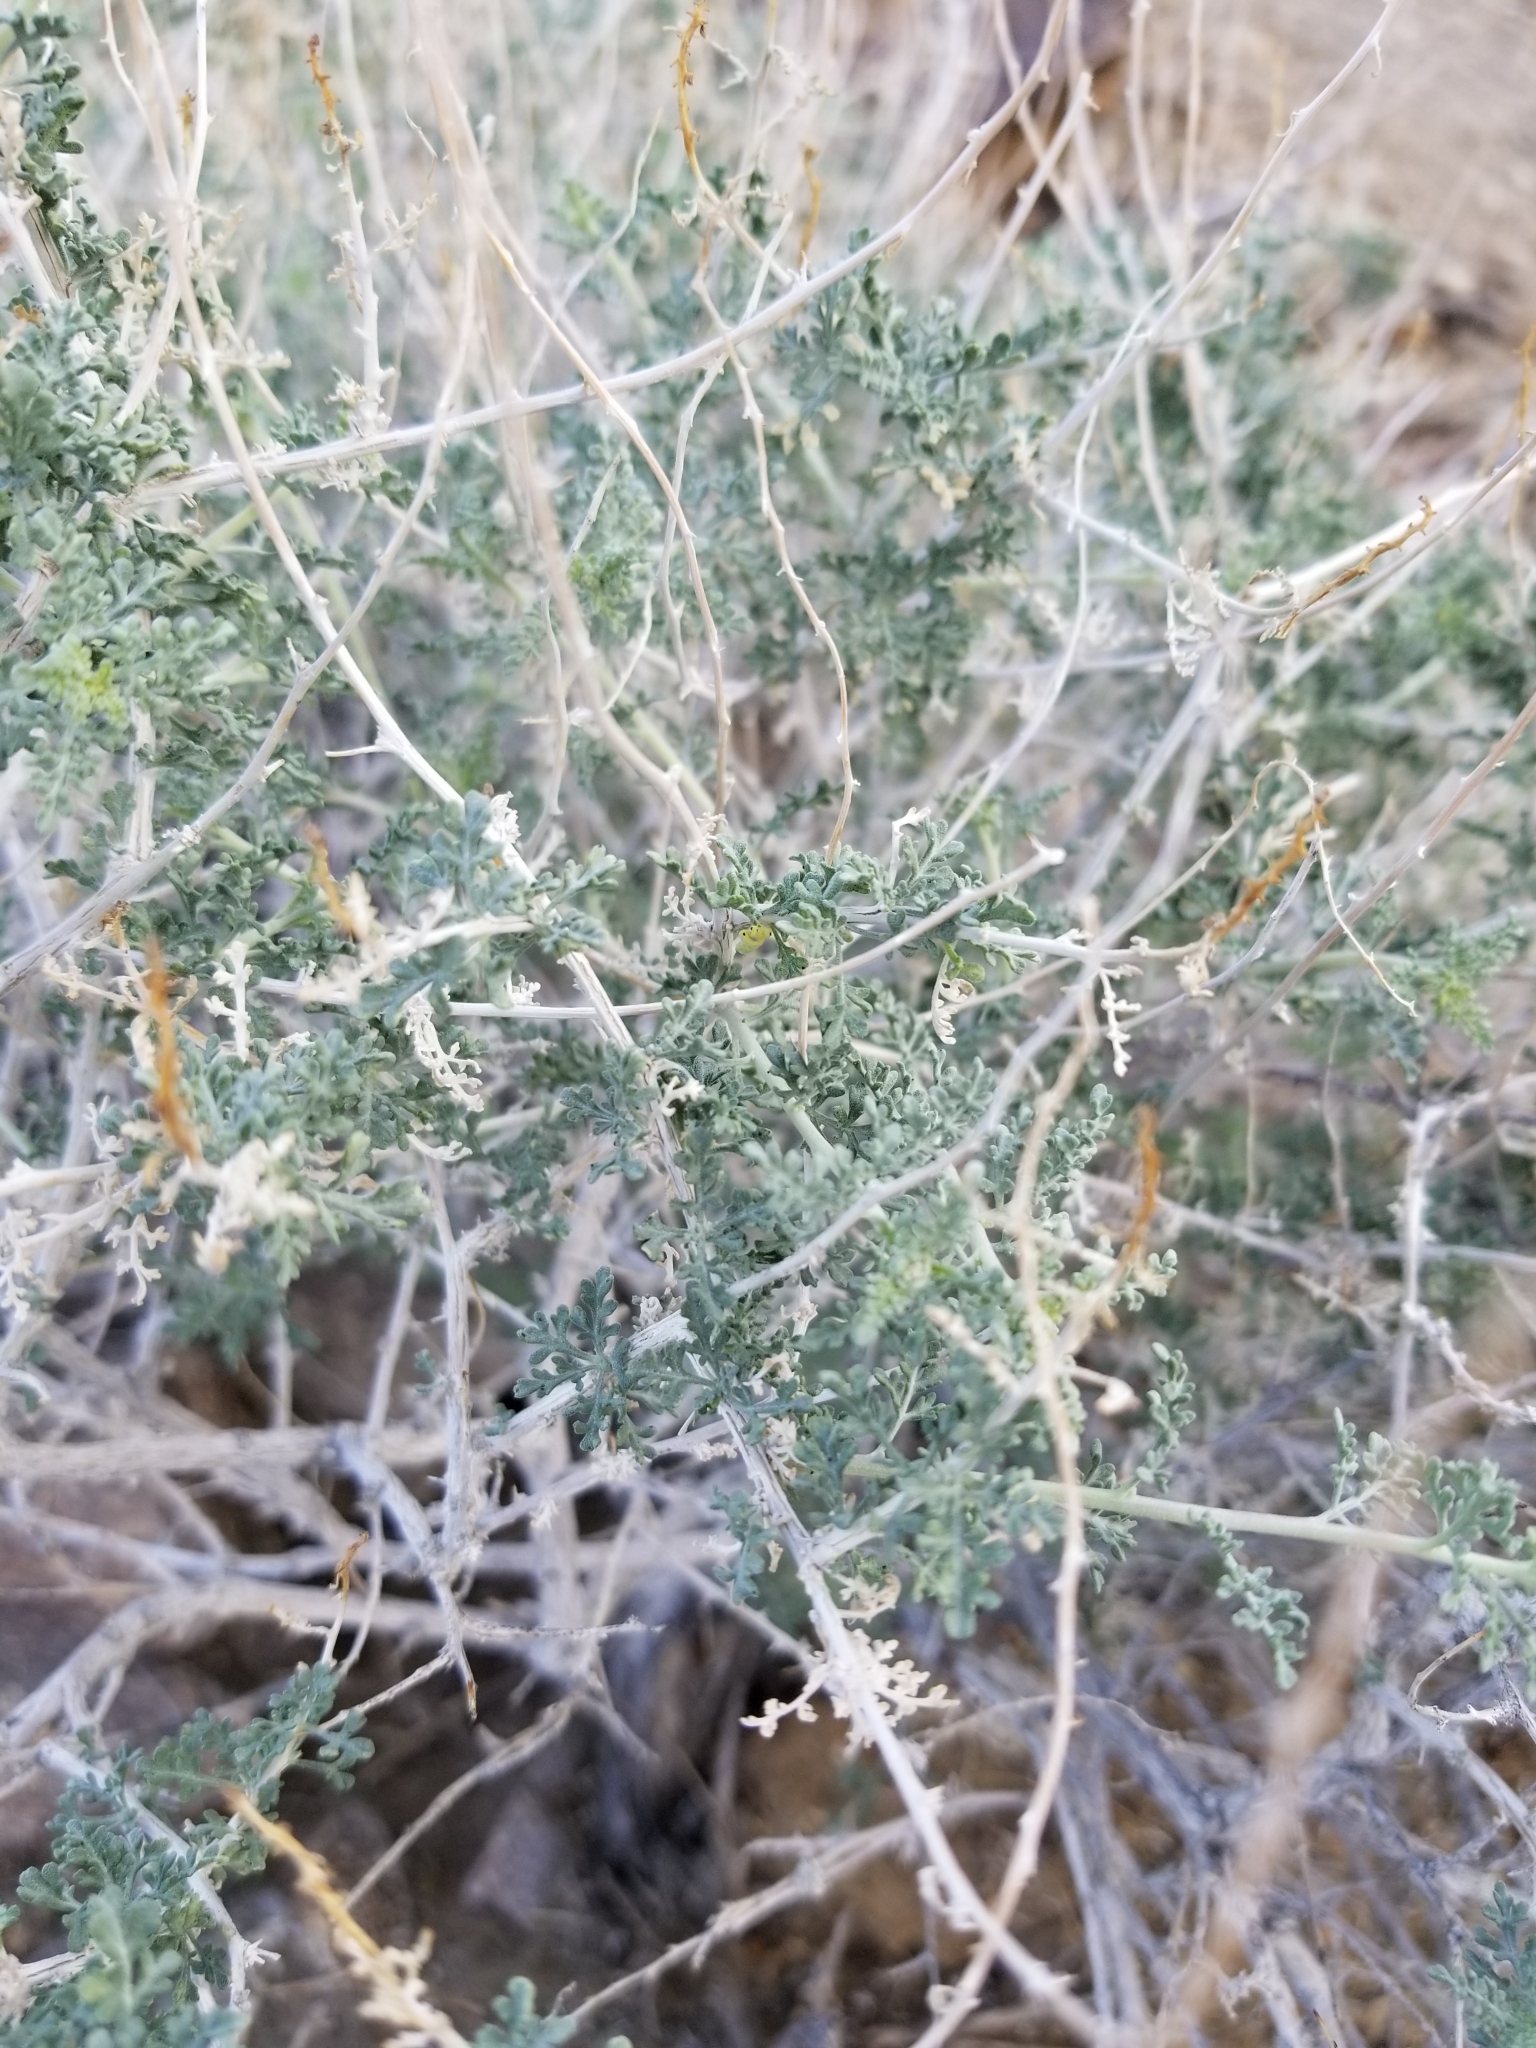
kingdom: Plantae
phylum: Tracheophyta
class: Magnoliopsida
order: Asterales
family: Asteraceae
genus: Ambrosia
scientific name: Ambrosia dumosa
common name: Bur-sage
